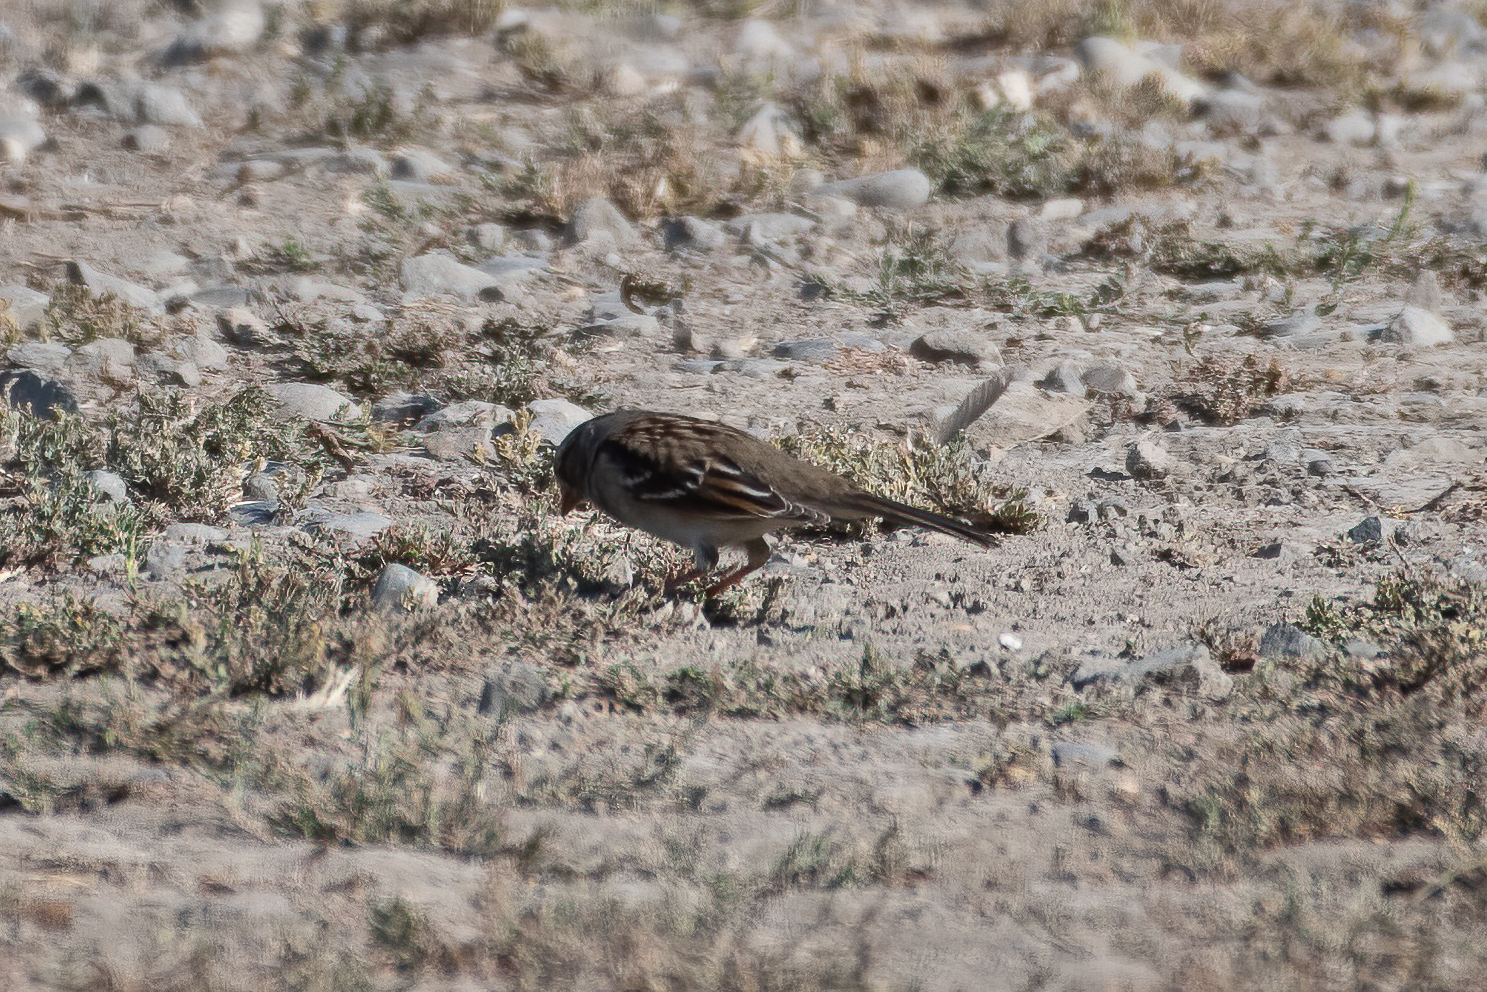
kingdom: Animalia
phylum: Chordata
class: Aves
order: Passeriformes
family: Passerellidae
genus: Zonotrichia
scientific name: Zonotrichia leucophrys
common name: White-crowned sparrow
